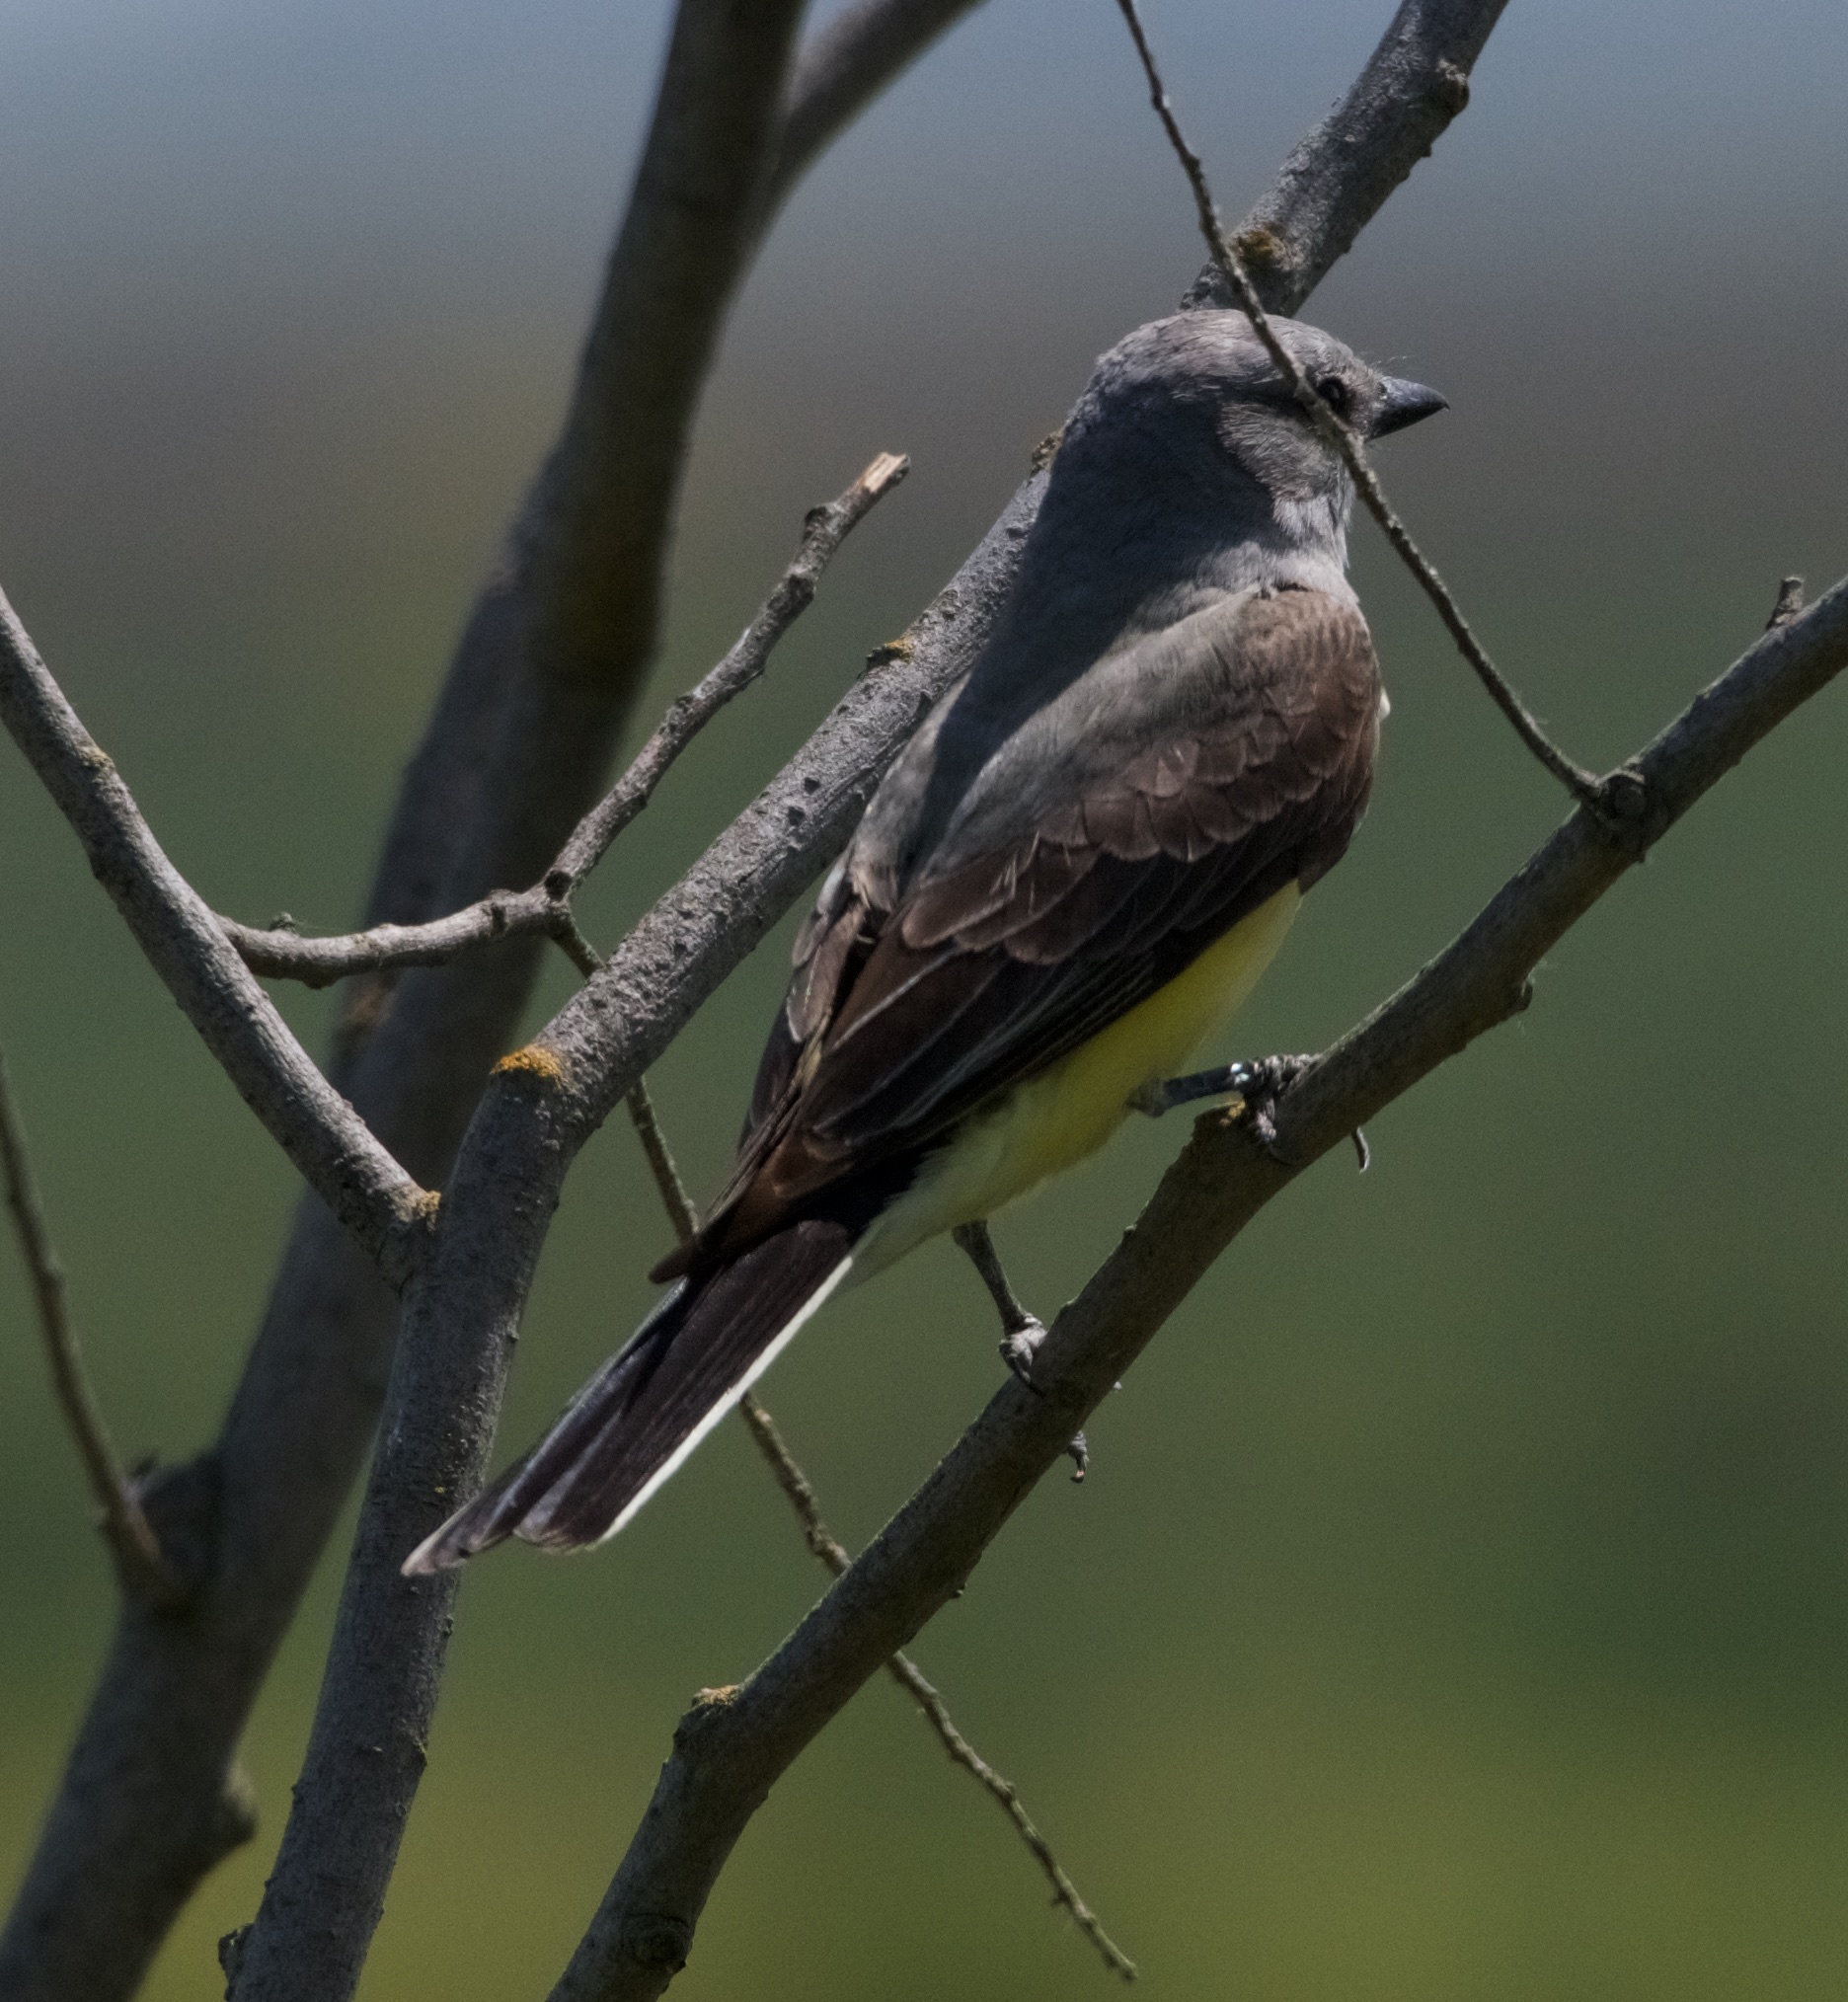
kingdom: Animalia
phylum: Chordata
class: Aves
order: Passeriformes
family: Tyrannidae
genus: Tyrannus
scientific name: Tyrannus verticalis
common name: Western kingbird
